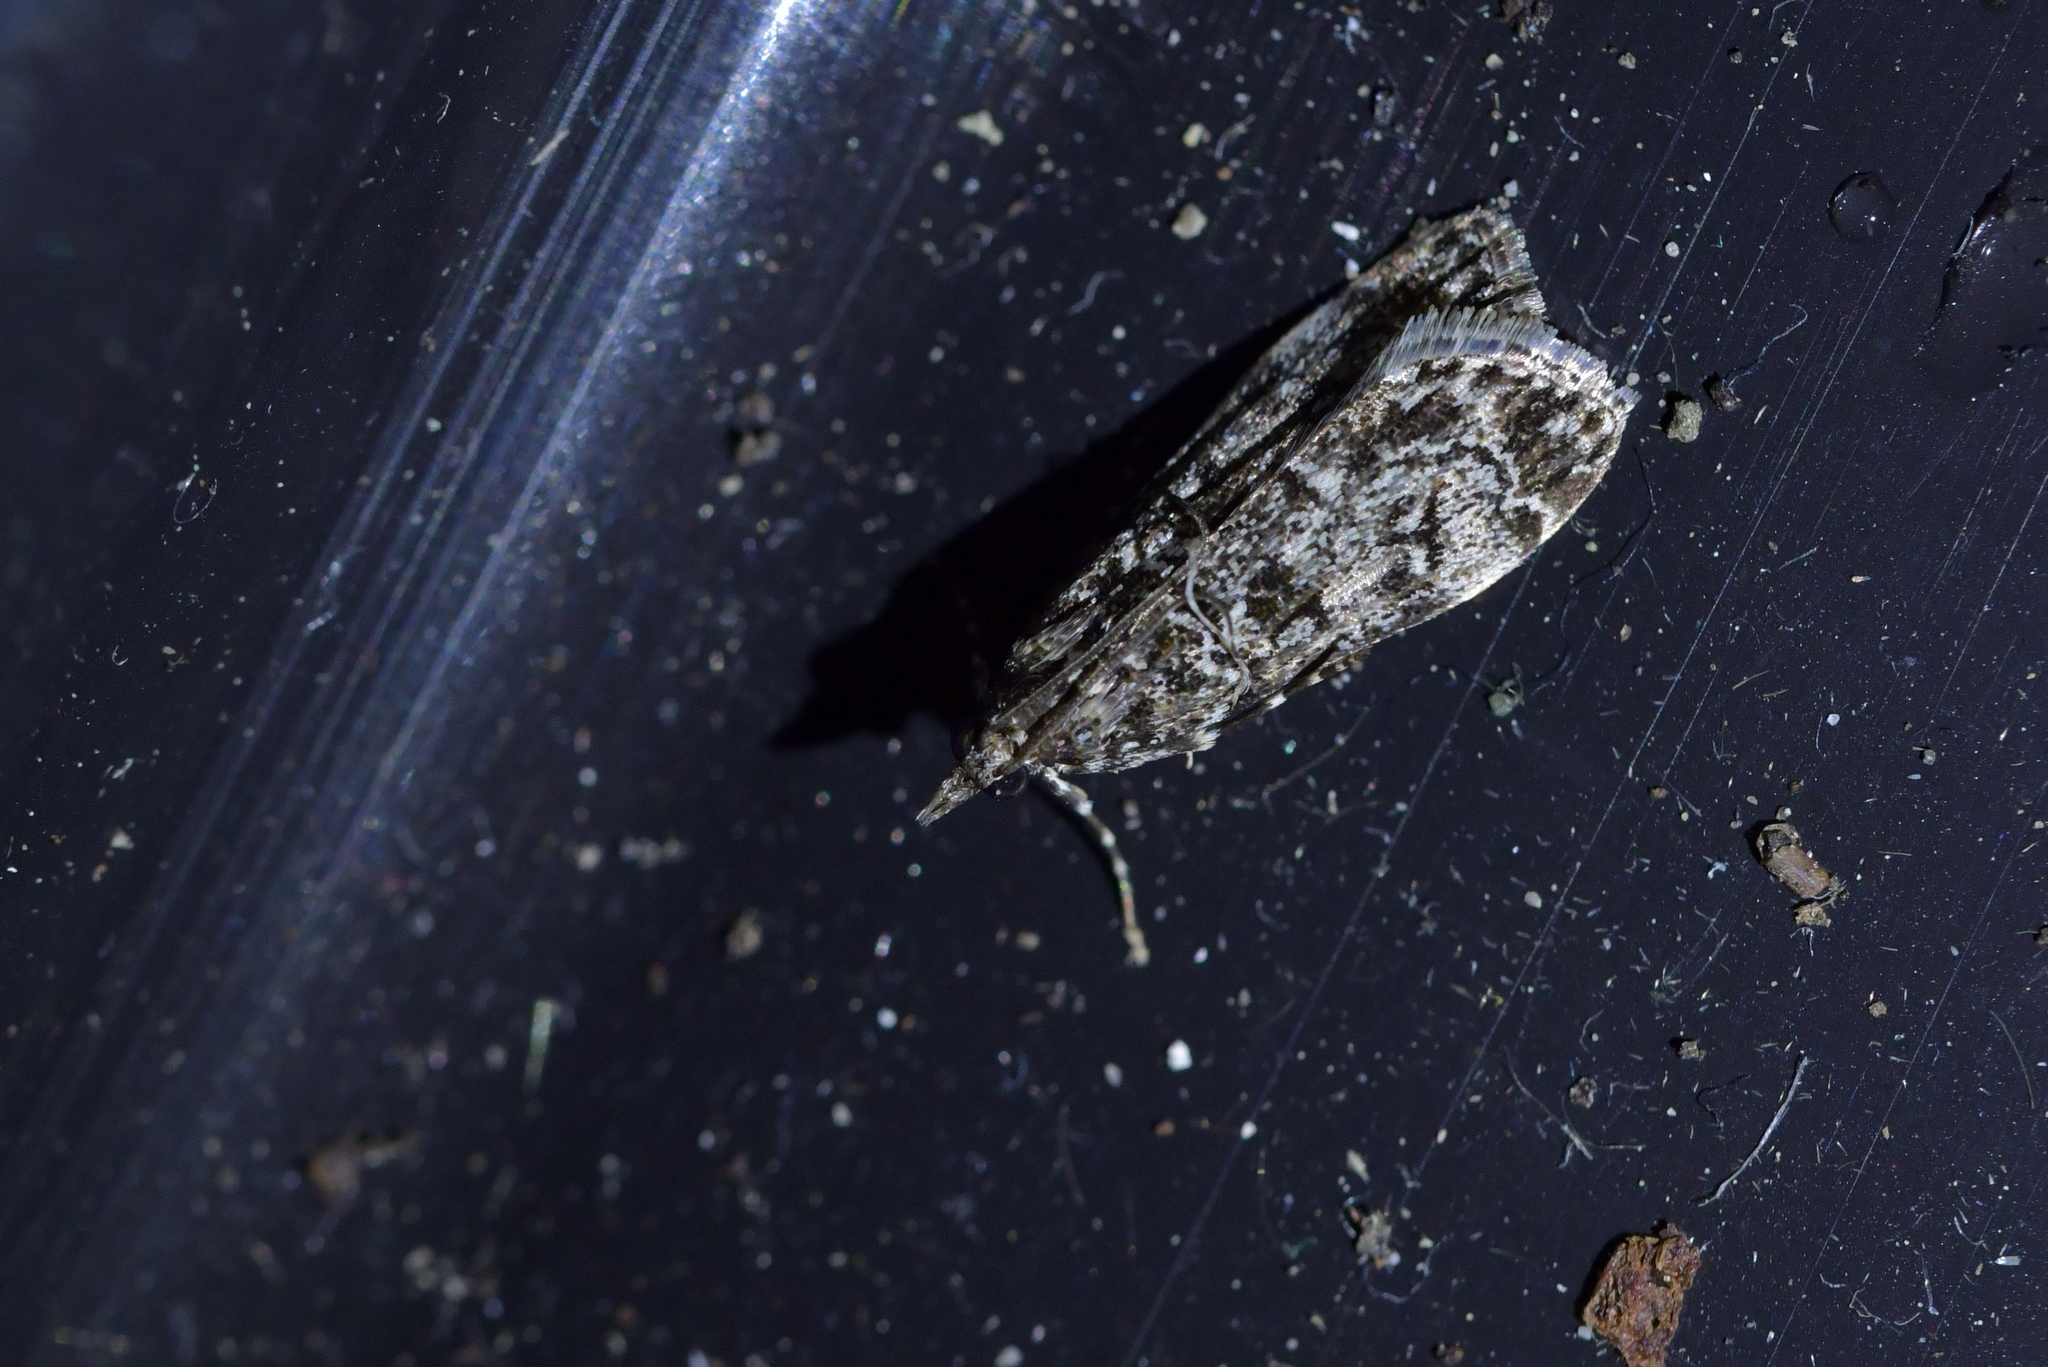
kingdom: Animalia
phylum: Arthropoda
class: Insecta
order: Lepidoptera
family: Crambidae
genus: Eudonia
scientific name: Eudonia philerga
